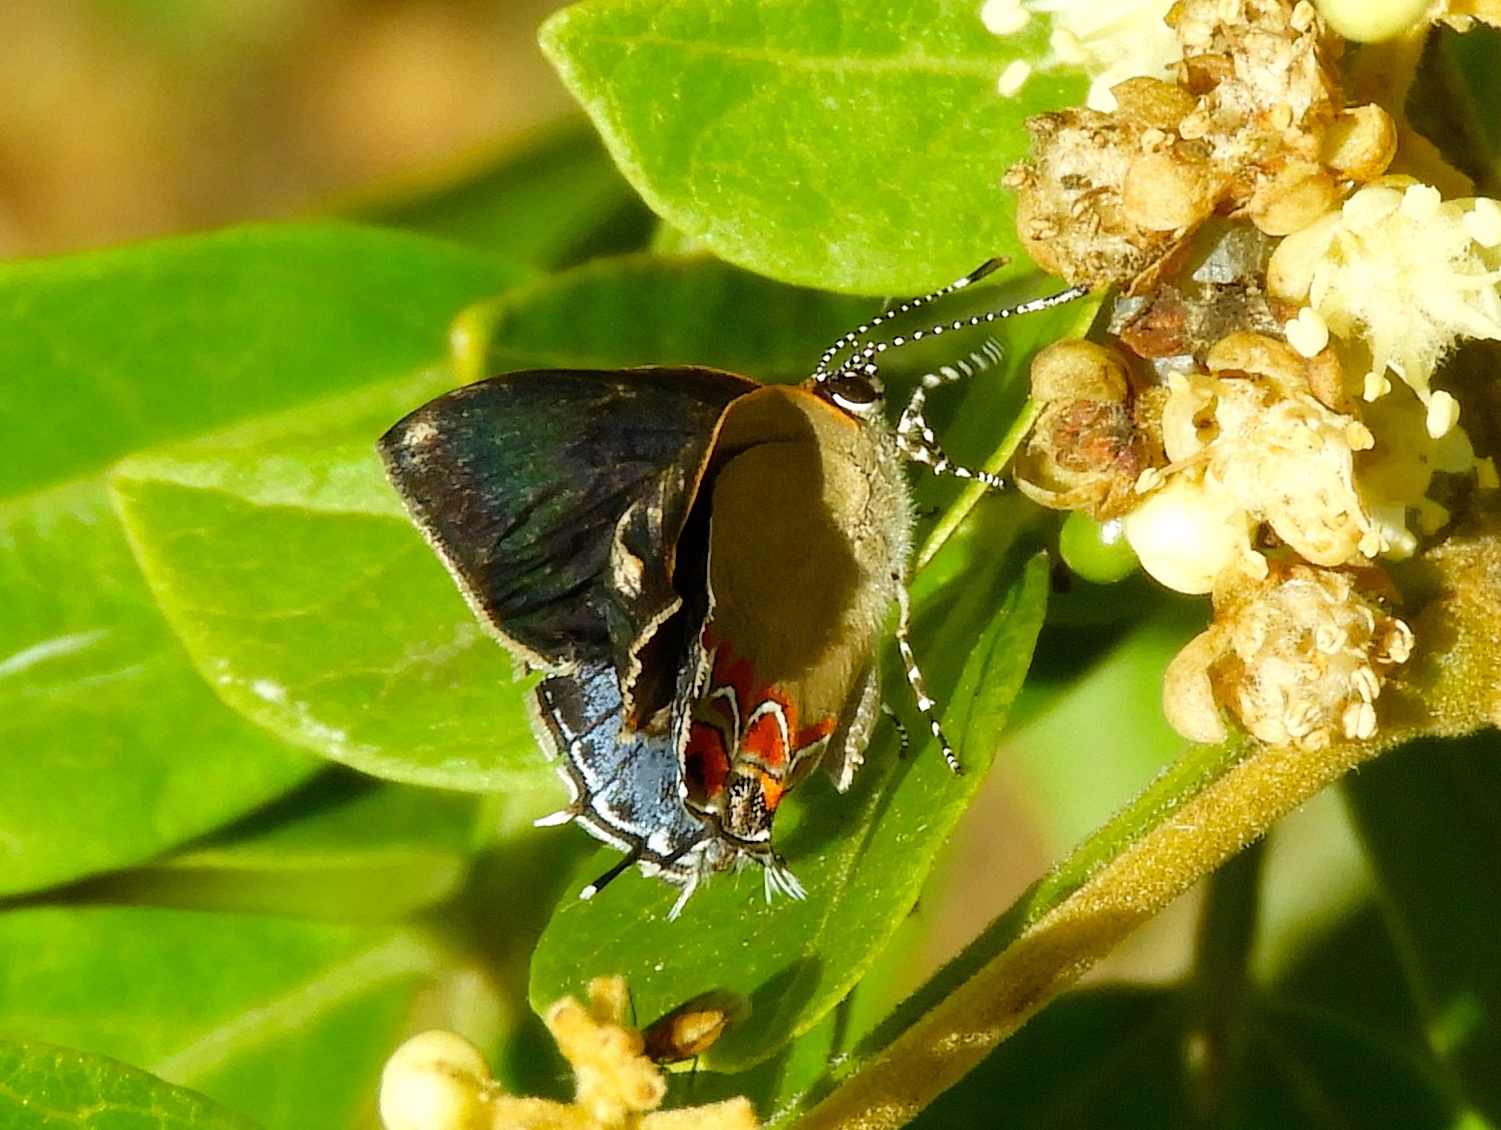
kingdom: Animalia
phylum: Arthropoda
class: Insecta
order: Lepidoptera
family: Lycaenidae
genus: Calycopis
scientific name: Calycopis
